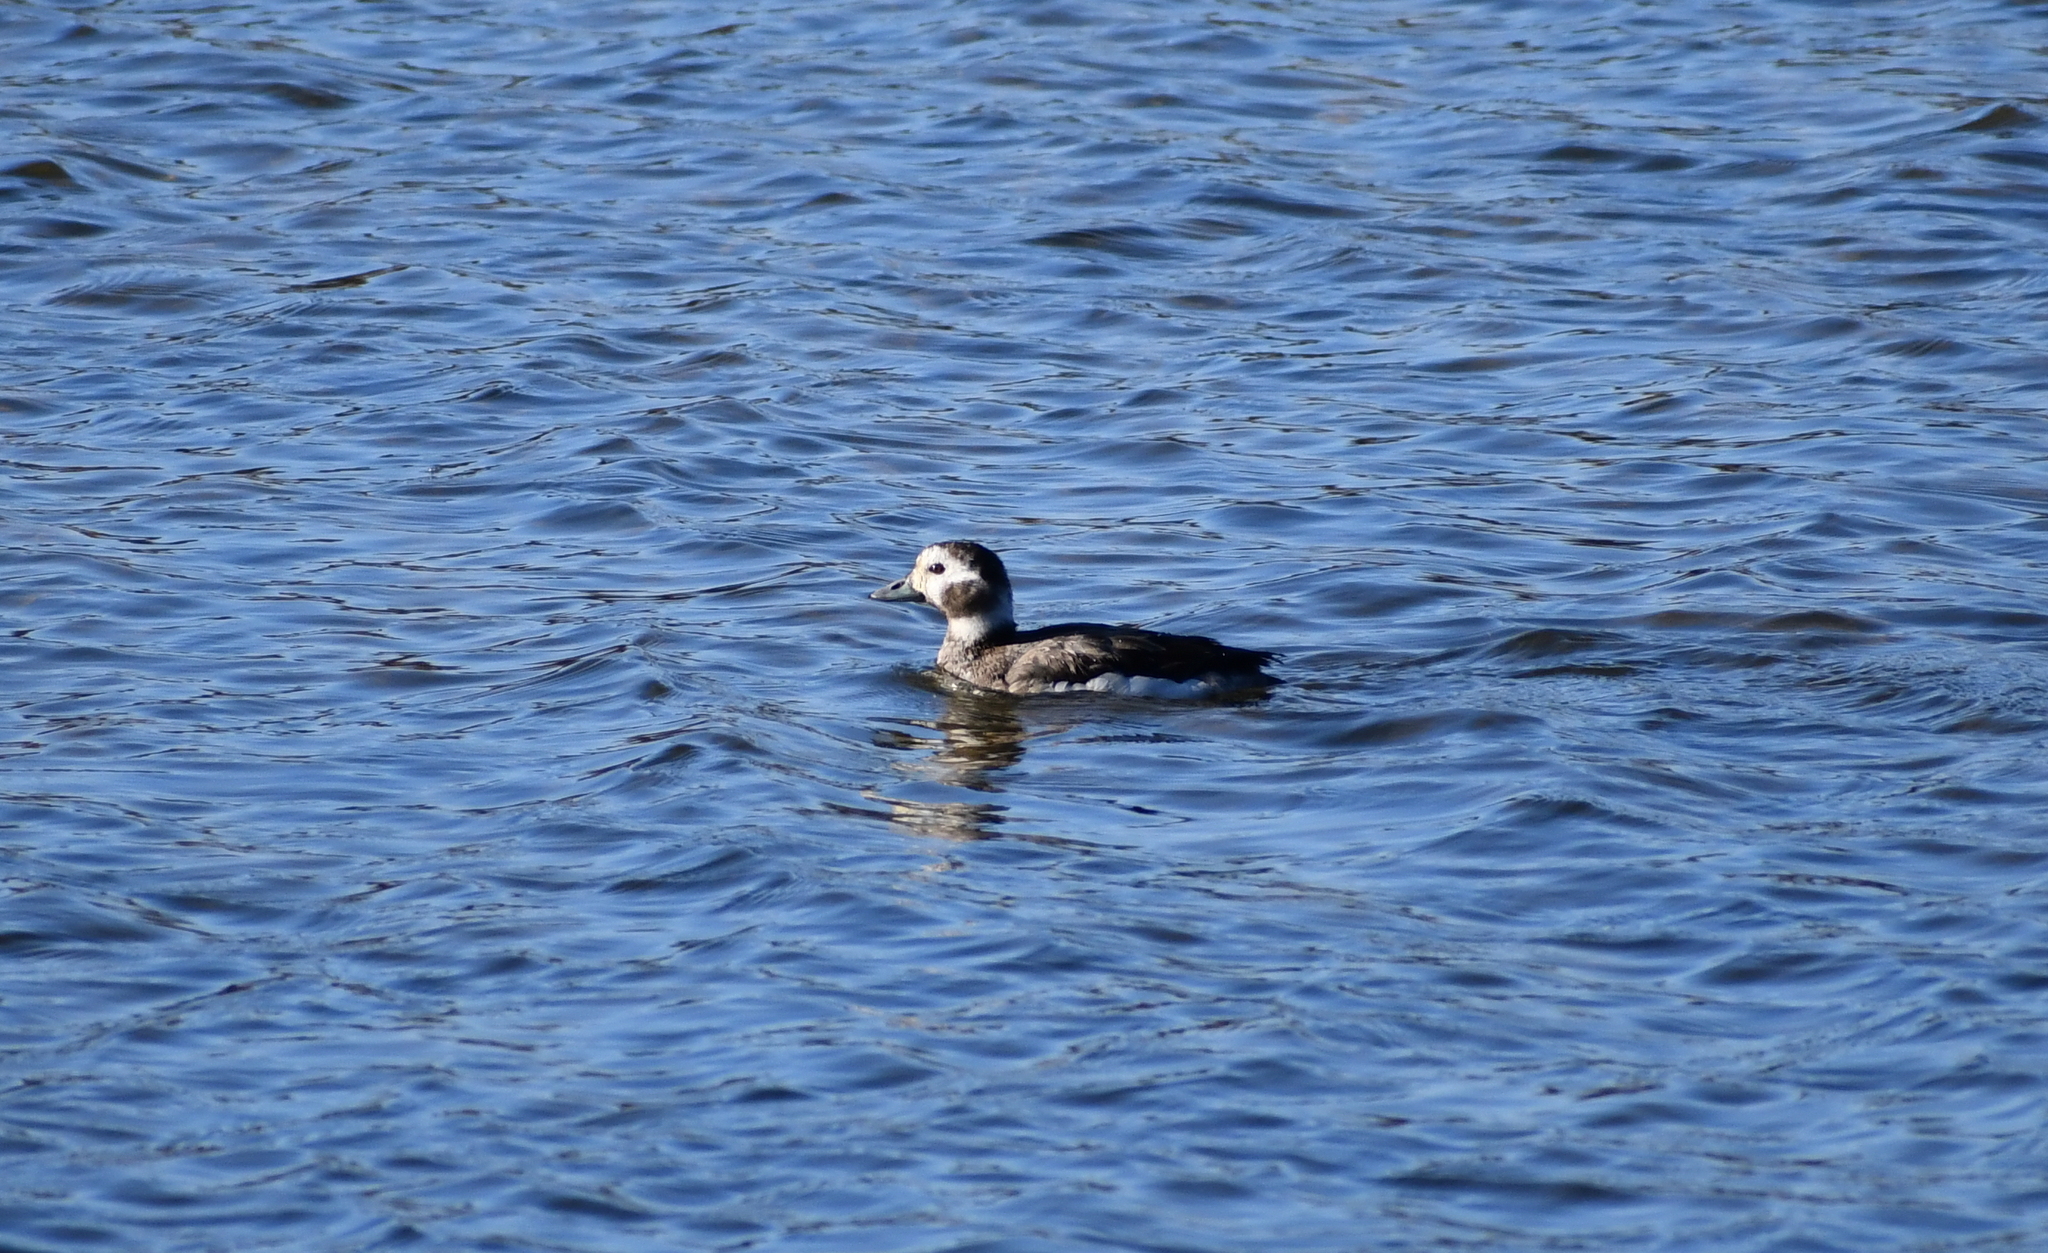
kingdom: Animalia
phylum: Chordata
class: Aves
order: Anseriformes
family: Anatidae
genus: Clangula
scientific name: Clangula hyemalis
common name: Long-tailed duck
